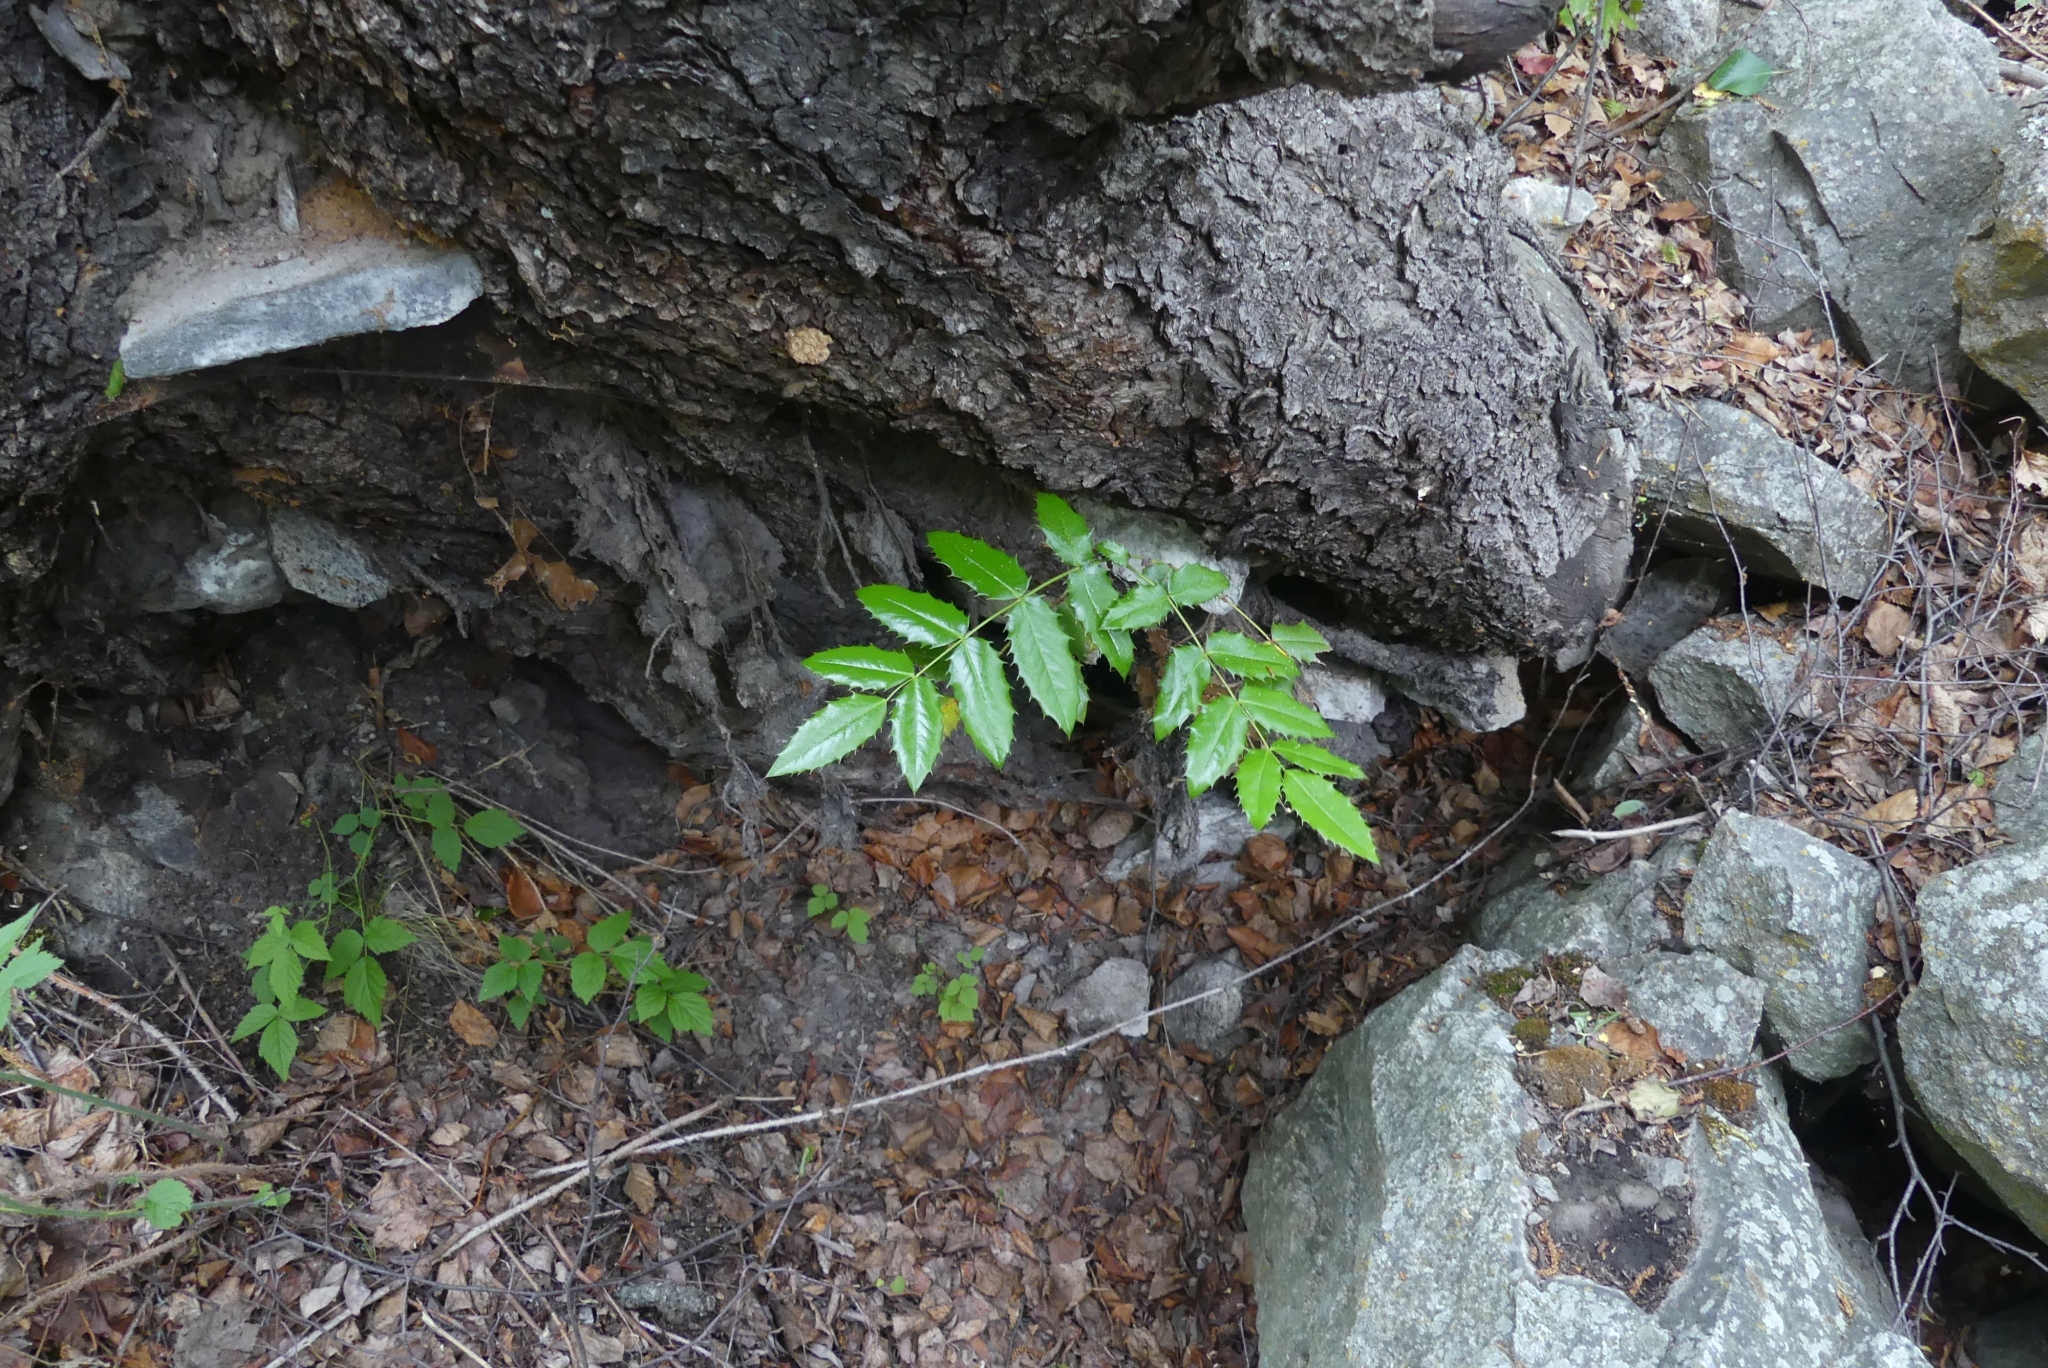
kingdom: Plantae
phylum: Tracheophyta
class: Magnoliopsida
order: Ranunculales
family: Berberidaceae
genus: Mahonia
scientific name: Mahonia aquifolium
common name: Oregon-grape
